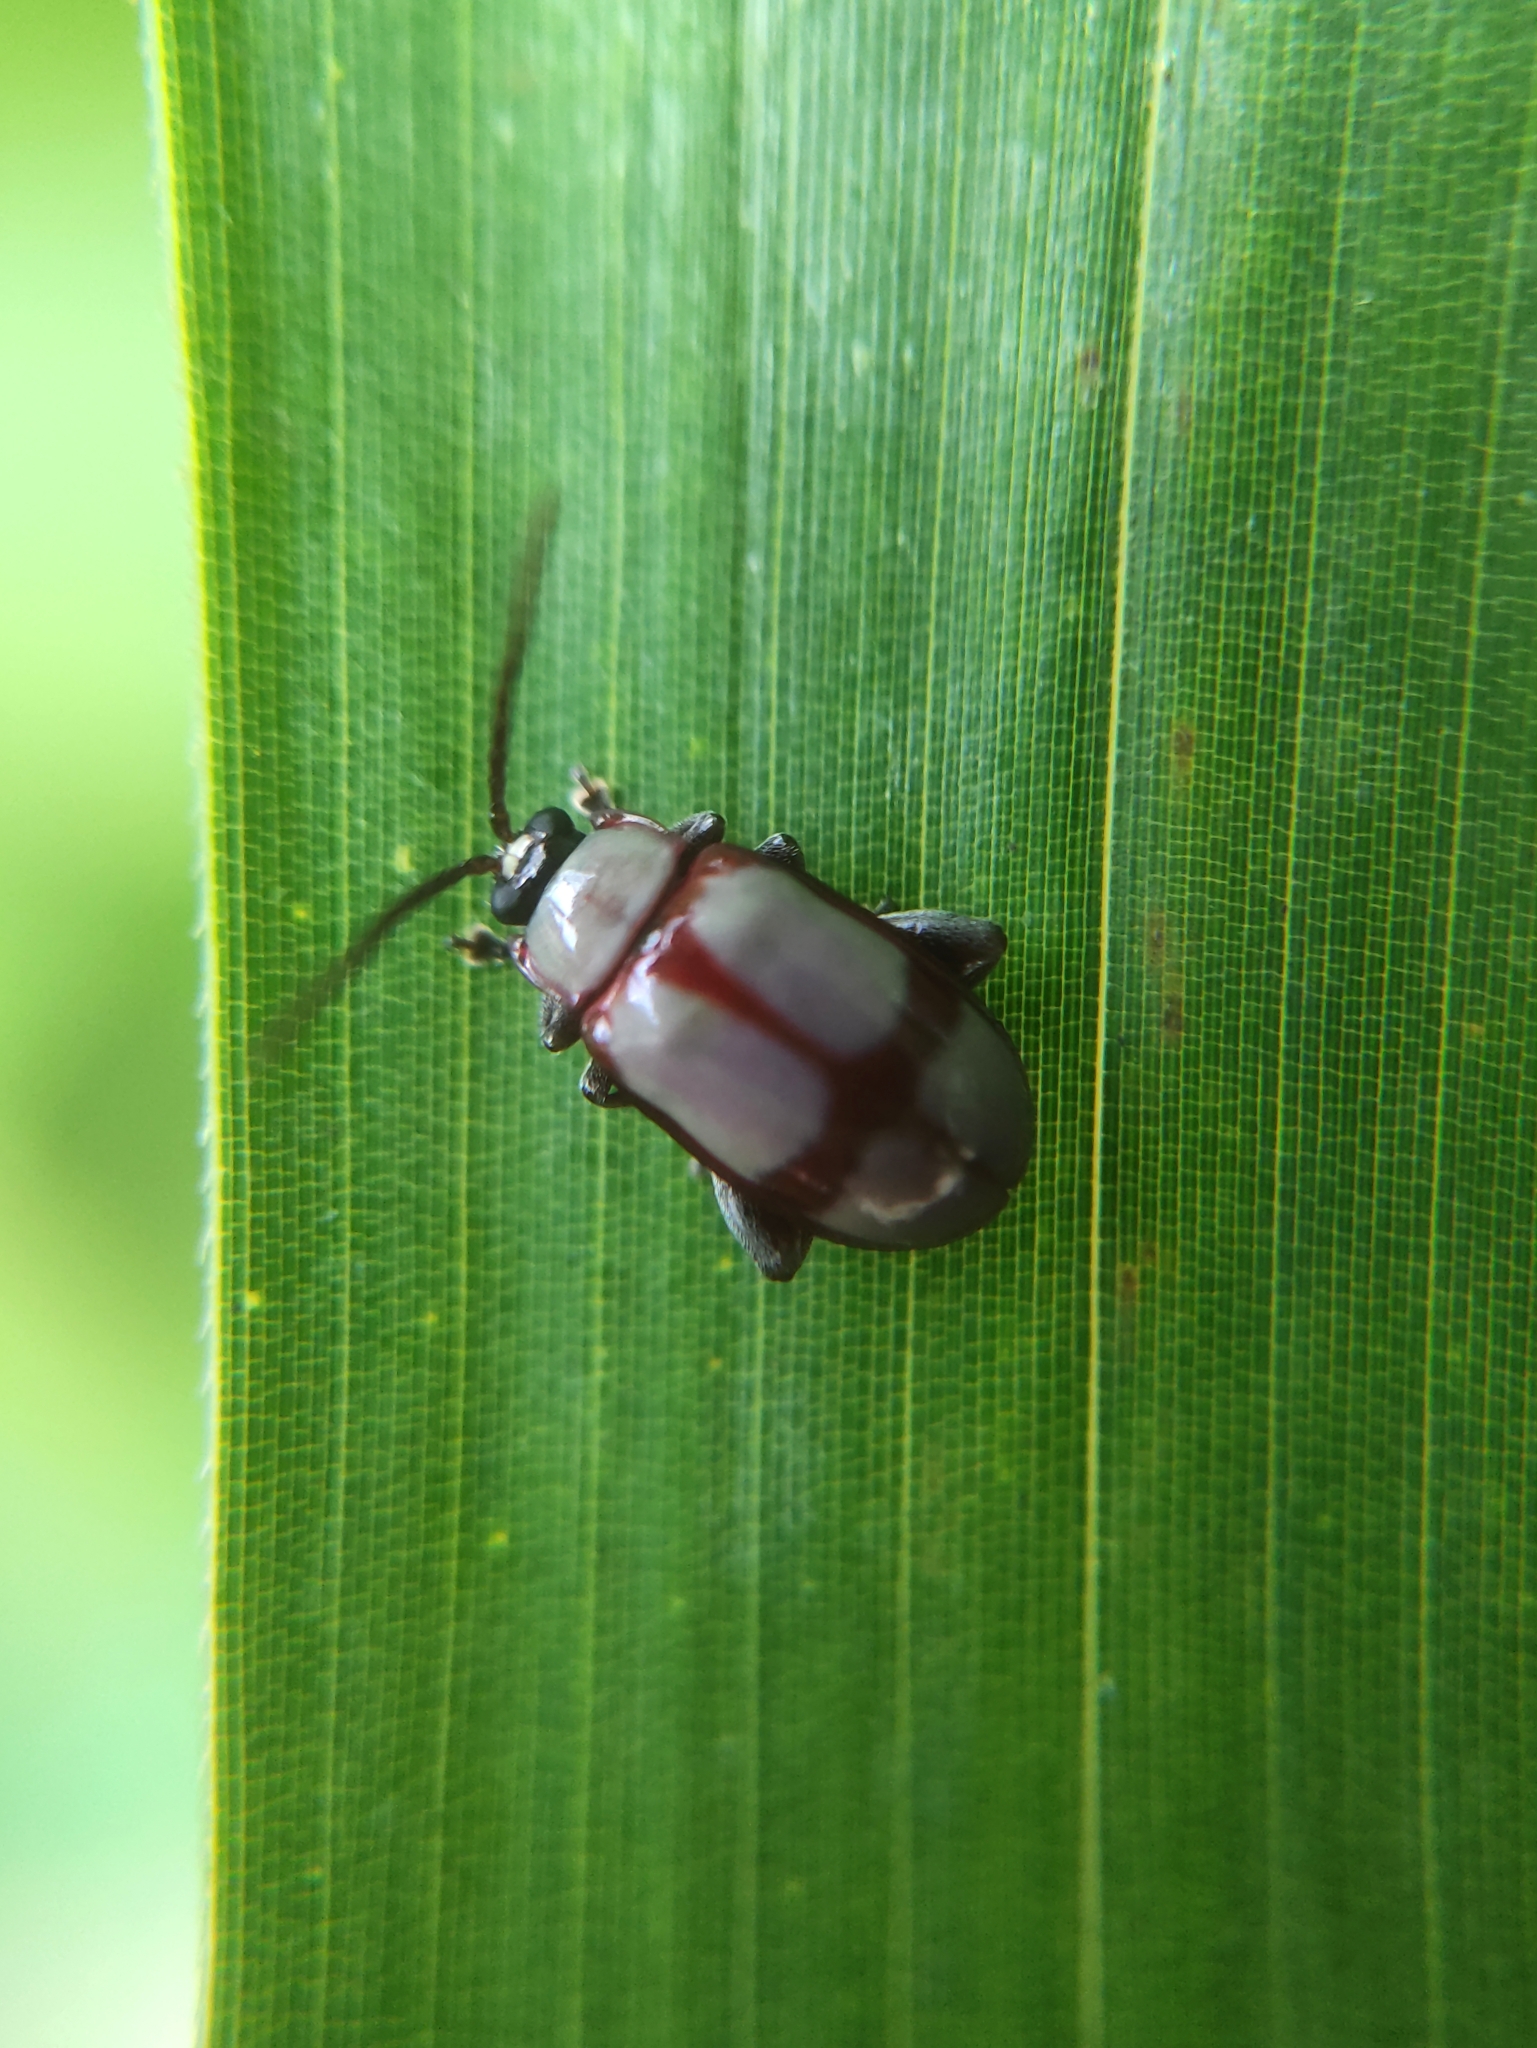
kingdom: Animalia
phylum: Arthropoda
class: Insecta
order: Coleoptera
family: Chrysomelidae
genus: Omophoita
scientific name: Omophoita
